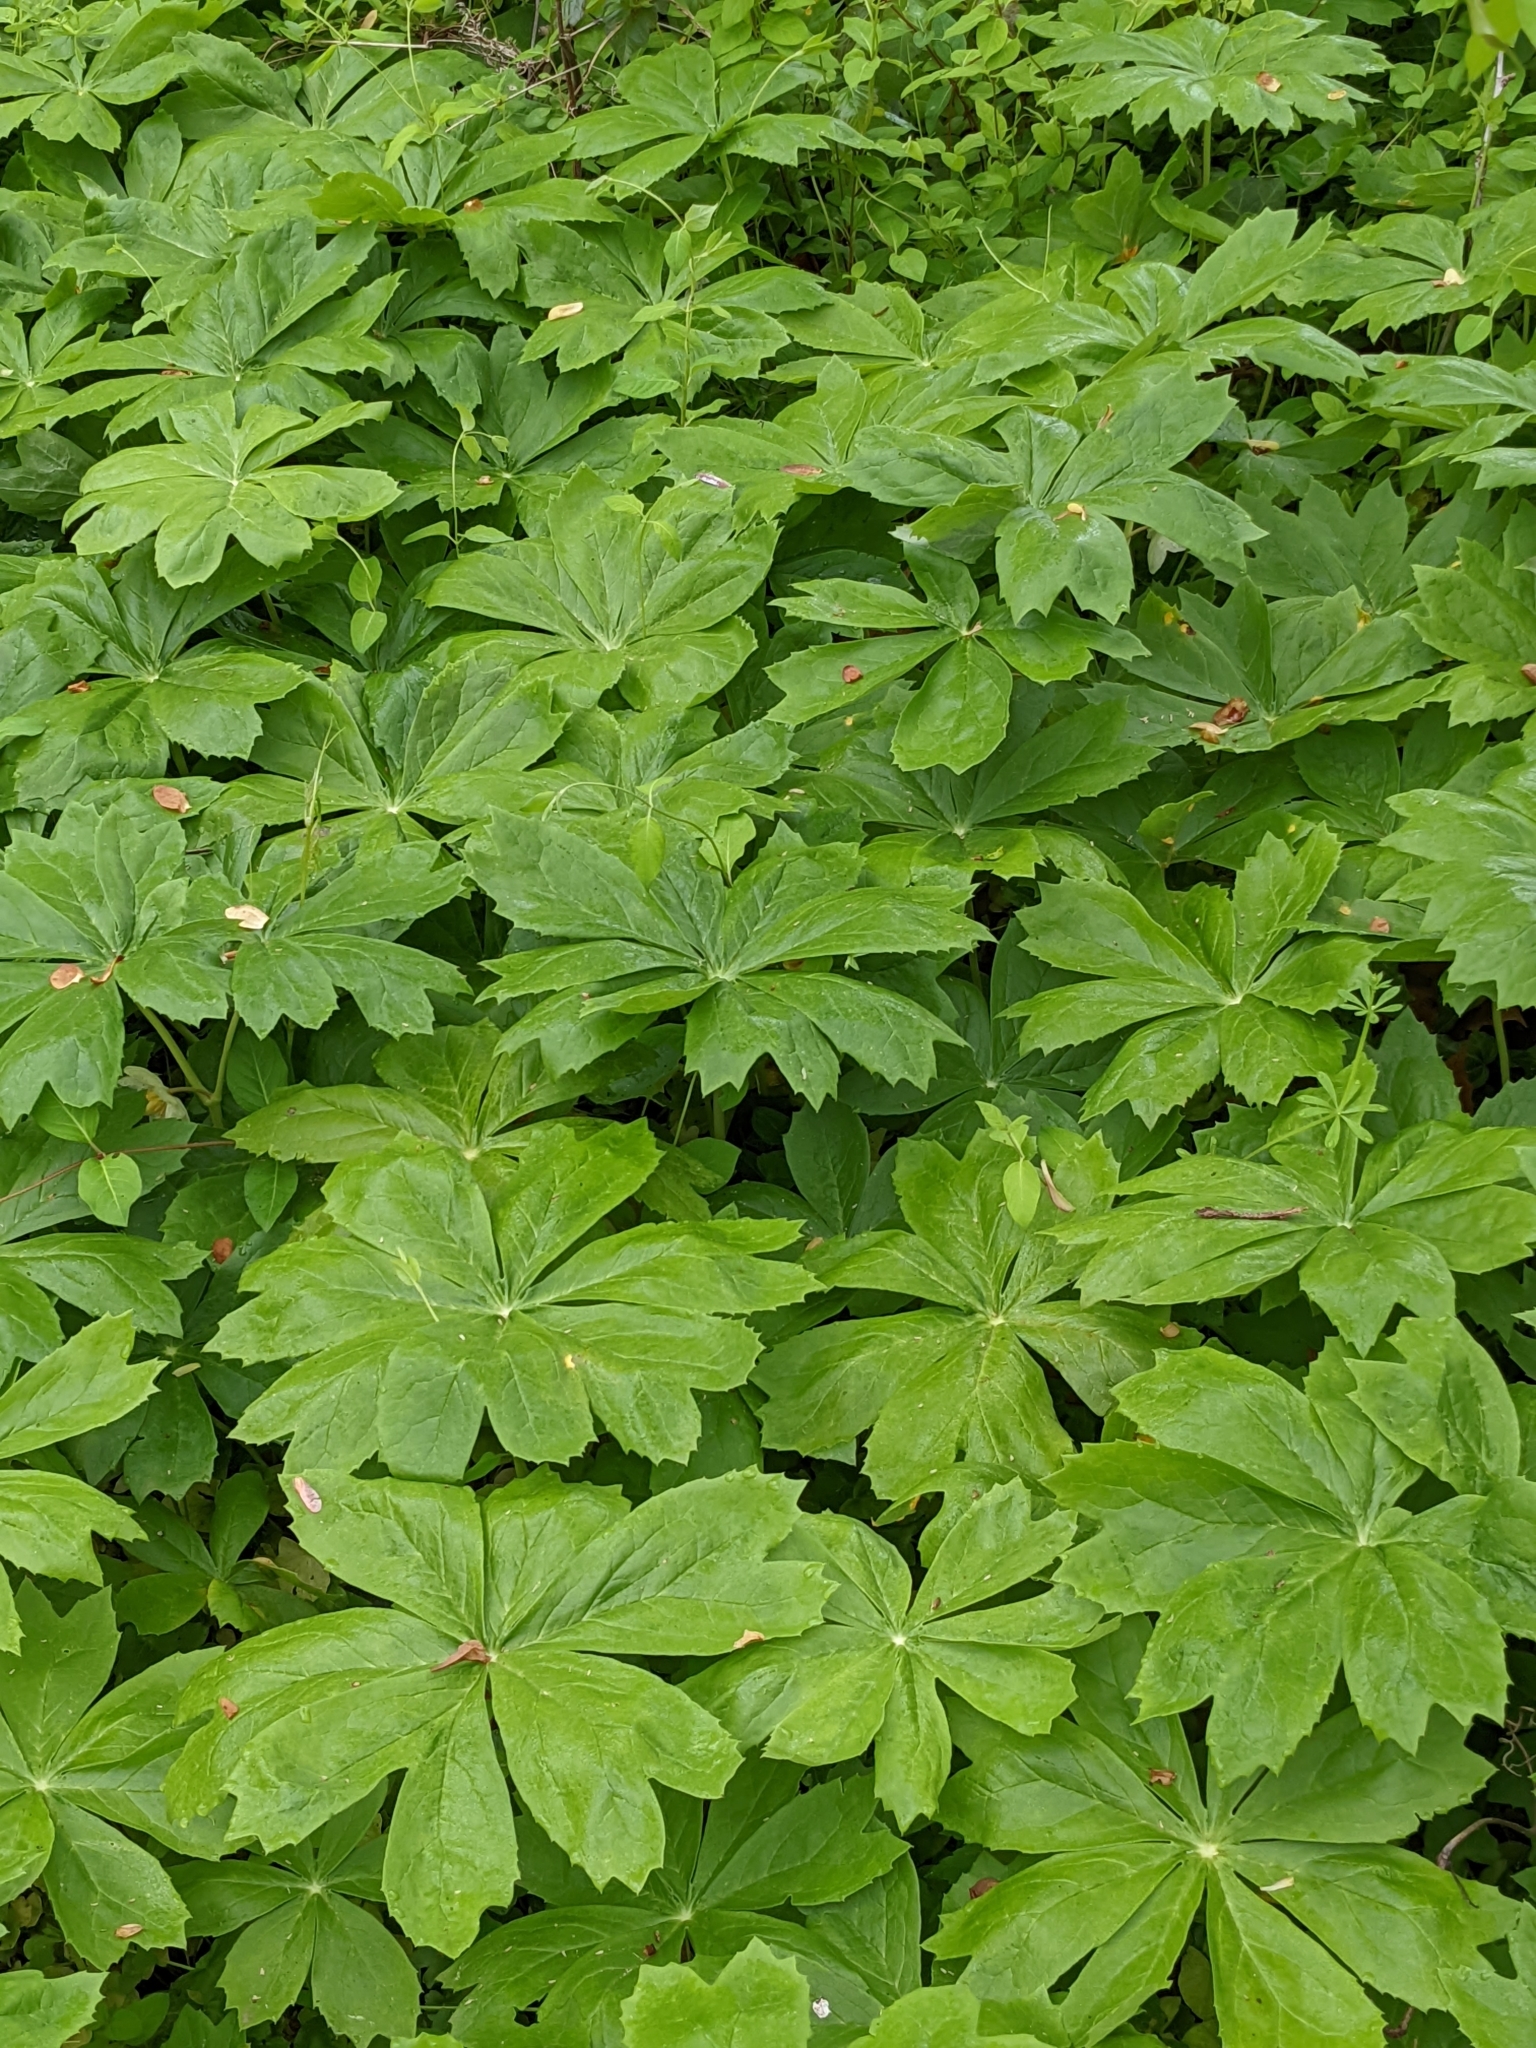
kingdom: Plantae
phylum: Tracheophyta
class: Magnoliopsida
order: Ranunculales
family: Berberidaceae
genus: Podophyllum
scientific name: Podophyllum peltatum
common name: Wild mandrake
